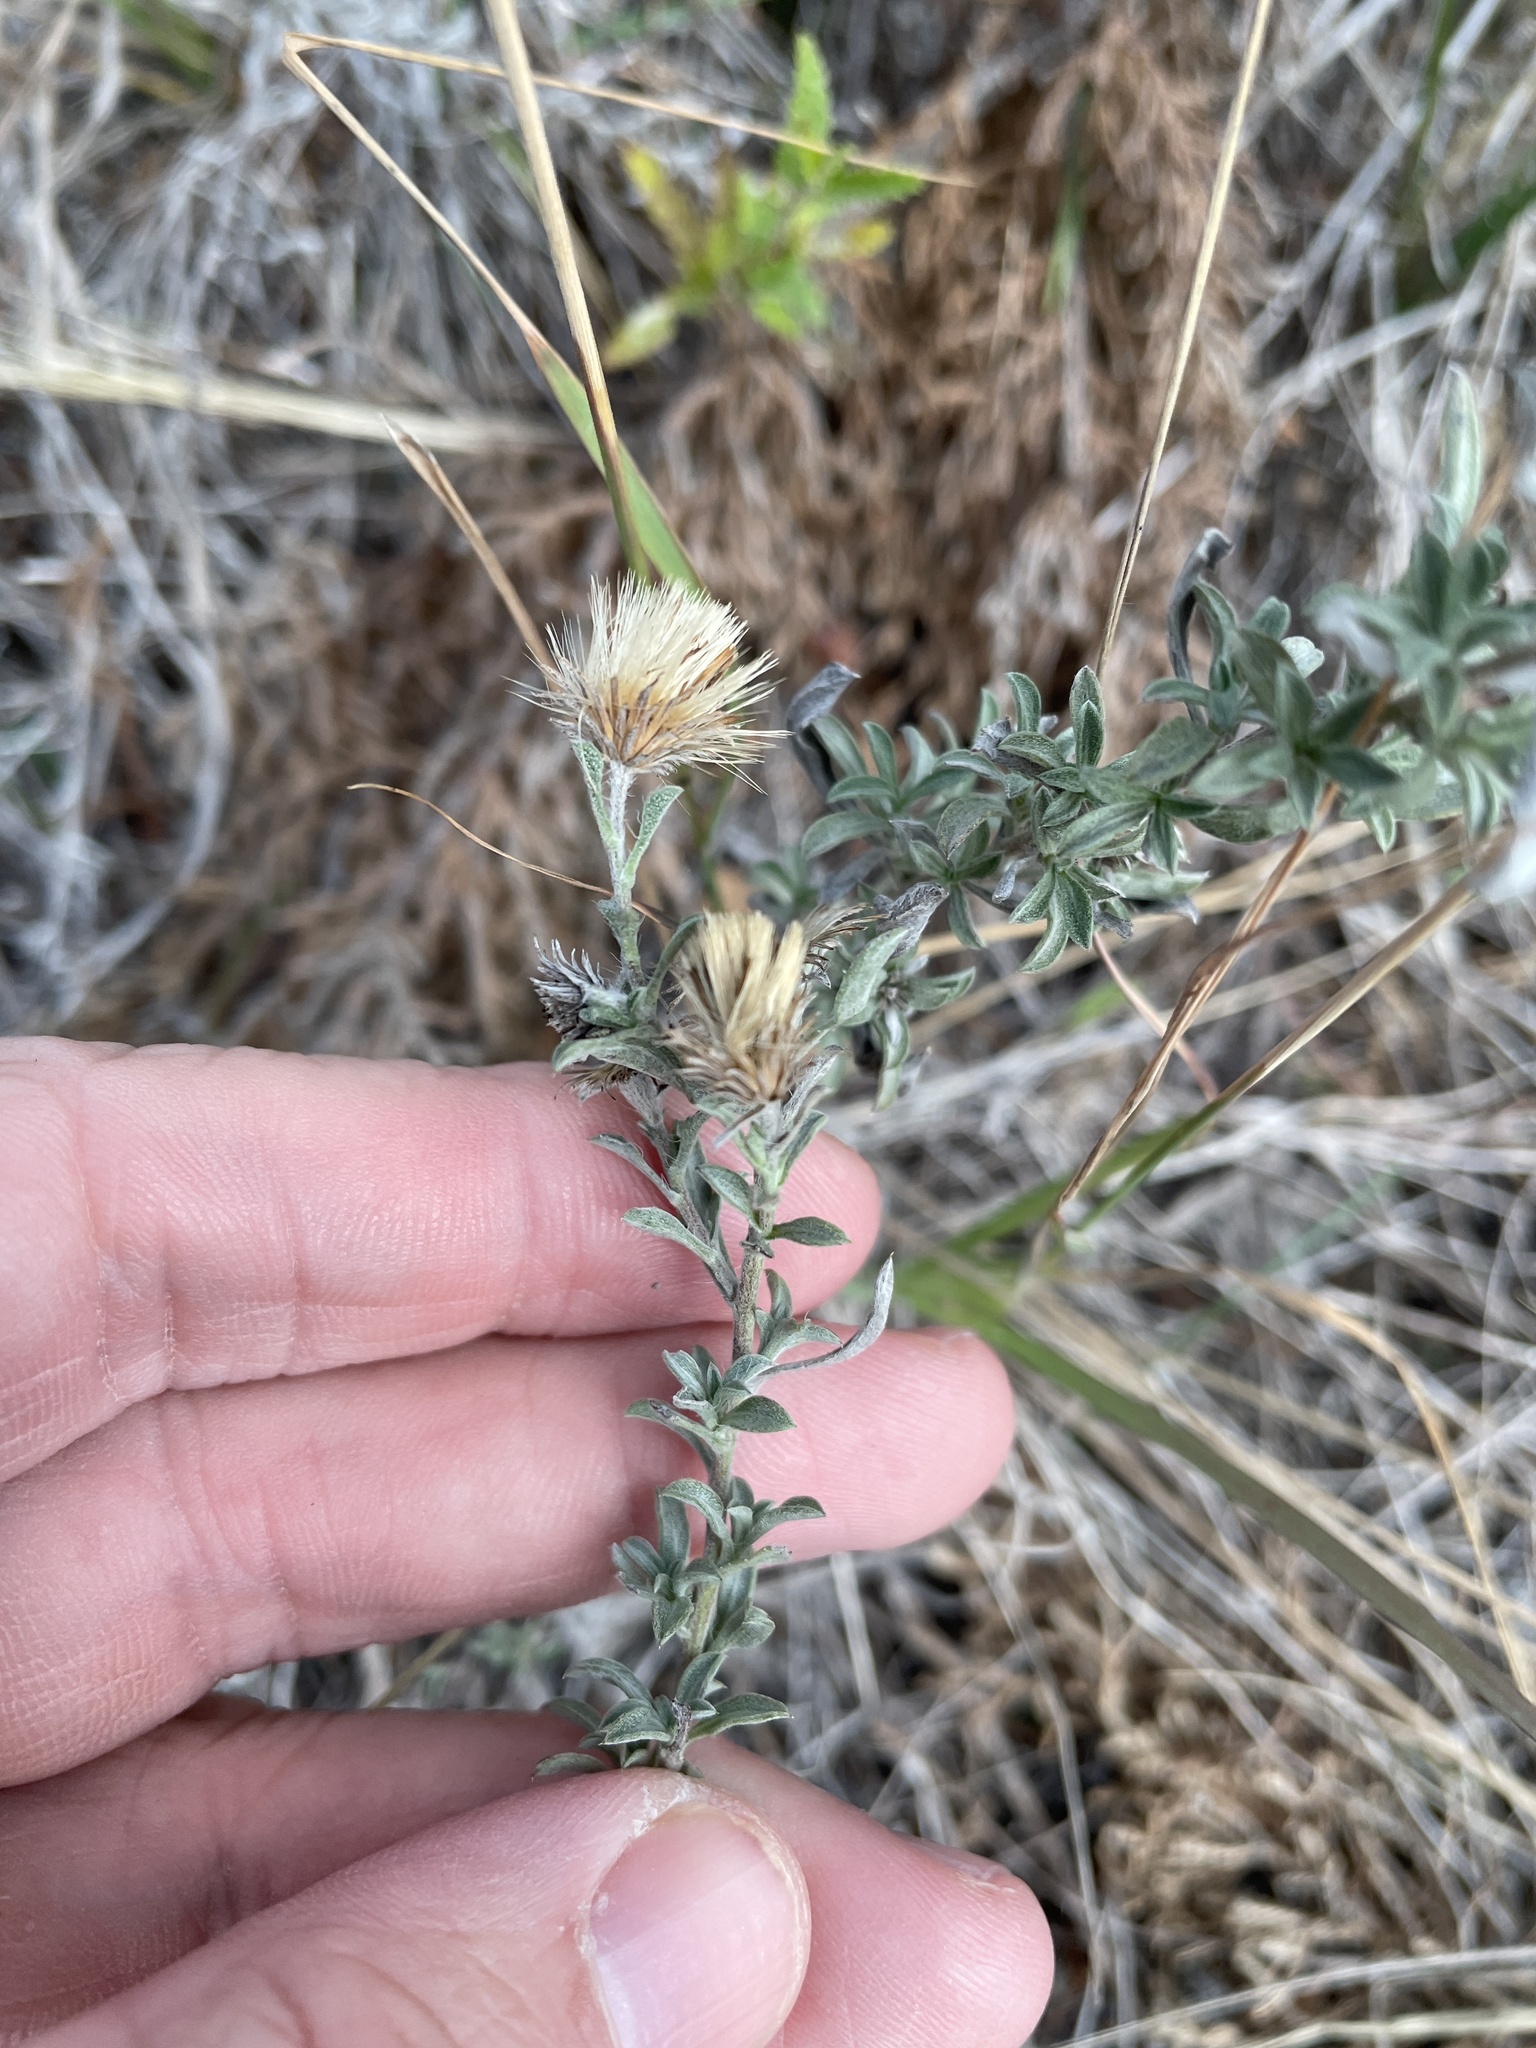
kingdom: Plantae
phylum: Tracheophyta
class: Magnoliopsida
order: Asterales
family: Asteraceae
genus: Heterotheca
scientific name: Heterotheca canescens
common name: Hoary golden-aster
